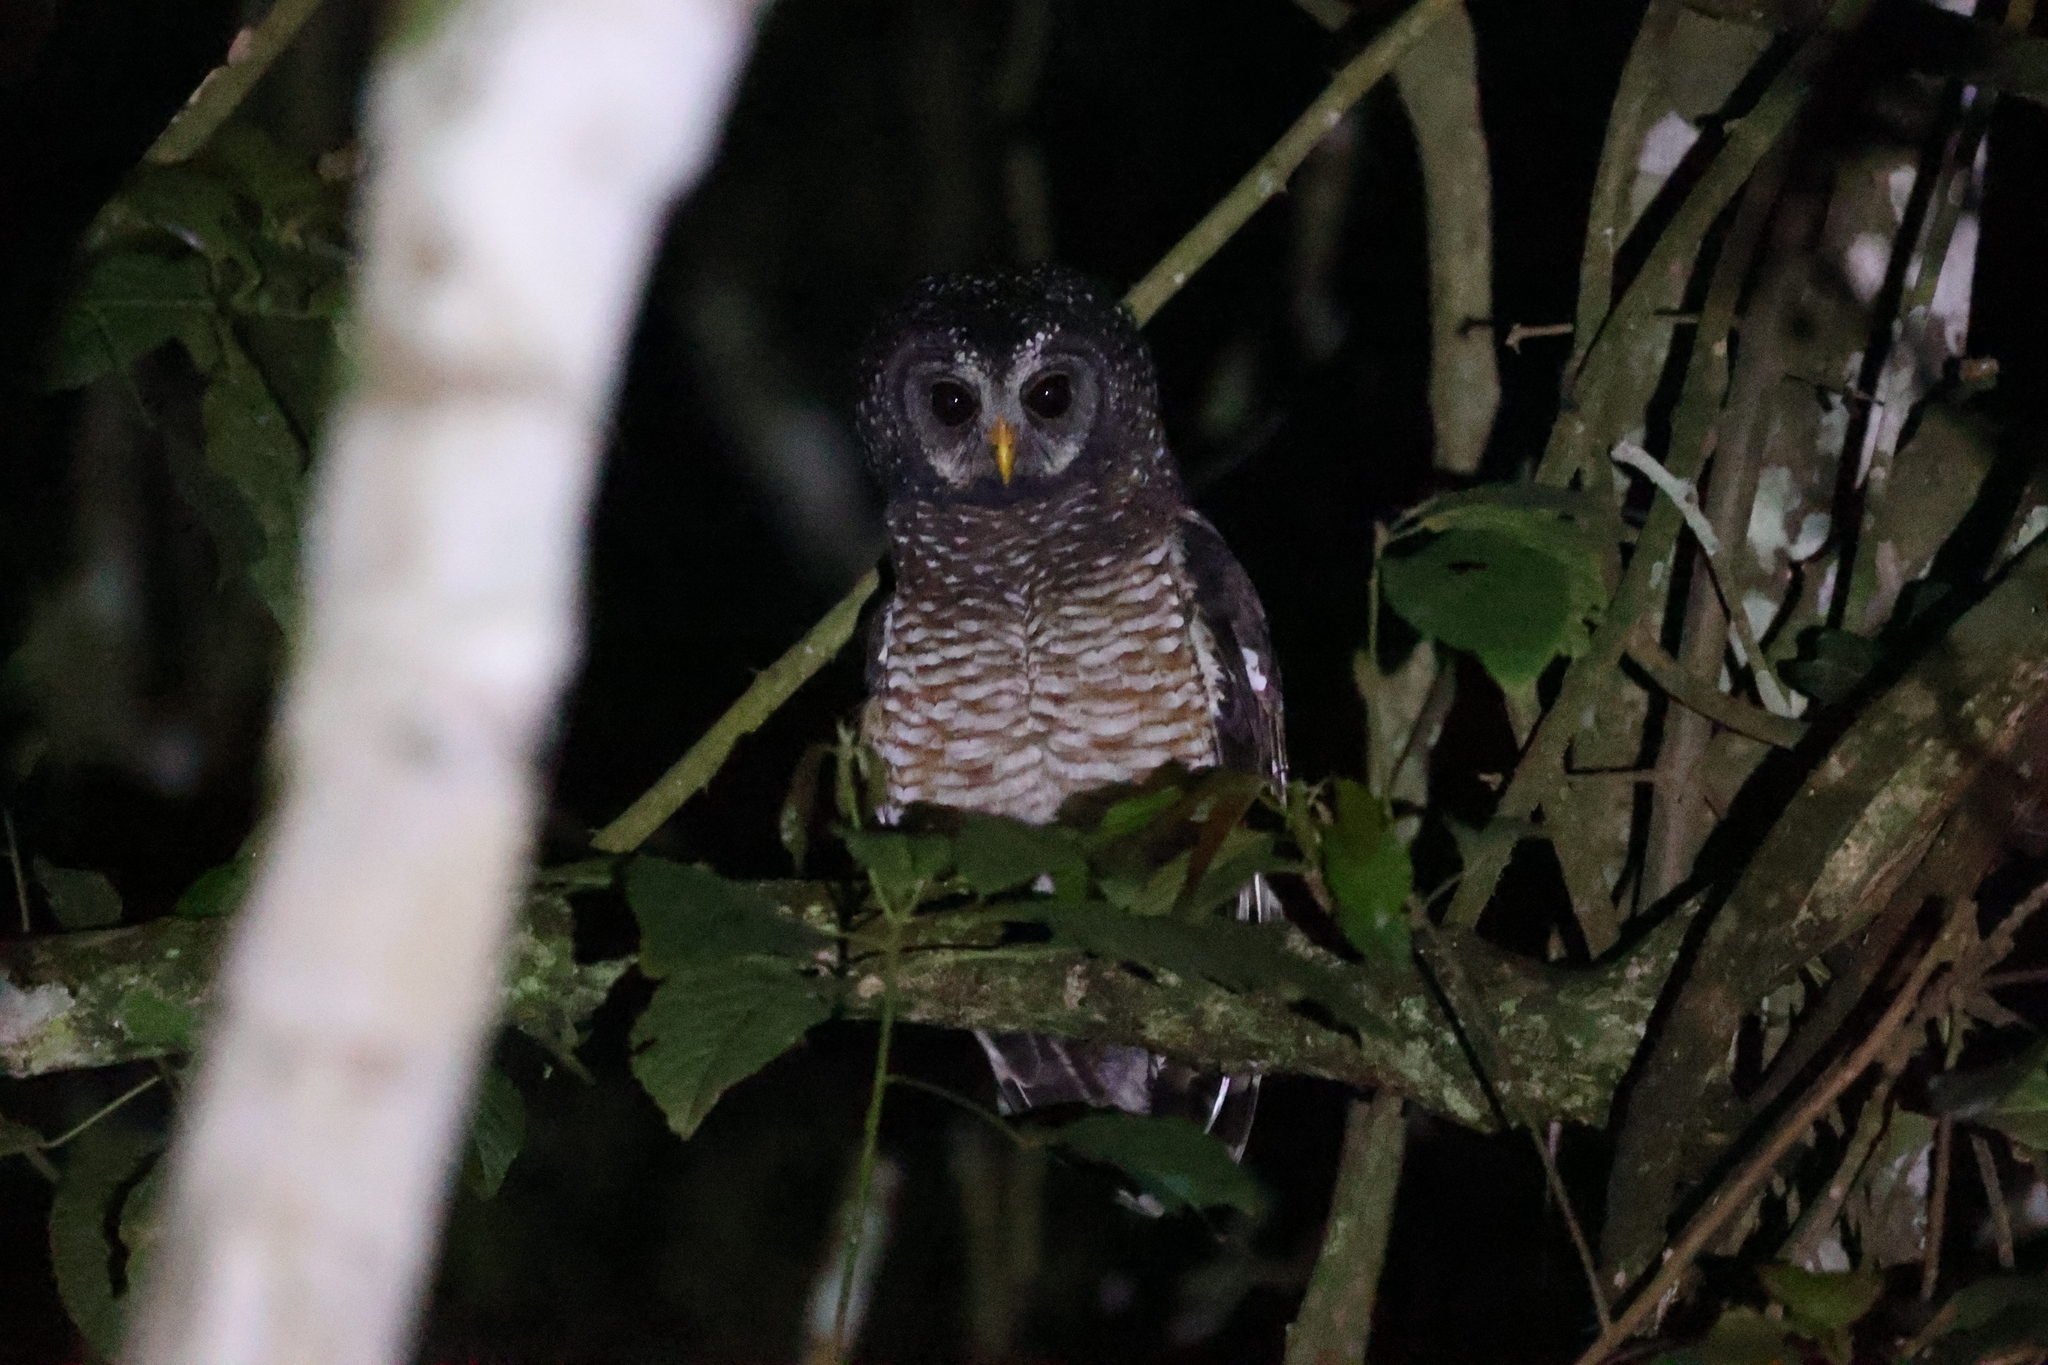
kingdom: Animalia
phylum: Chordata
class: Aves
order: Strigiformes
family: Strigidae
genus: Strix
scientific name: Strix woodfordii
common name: African wood owl
